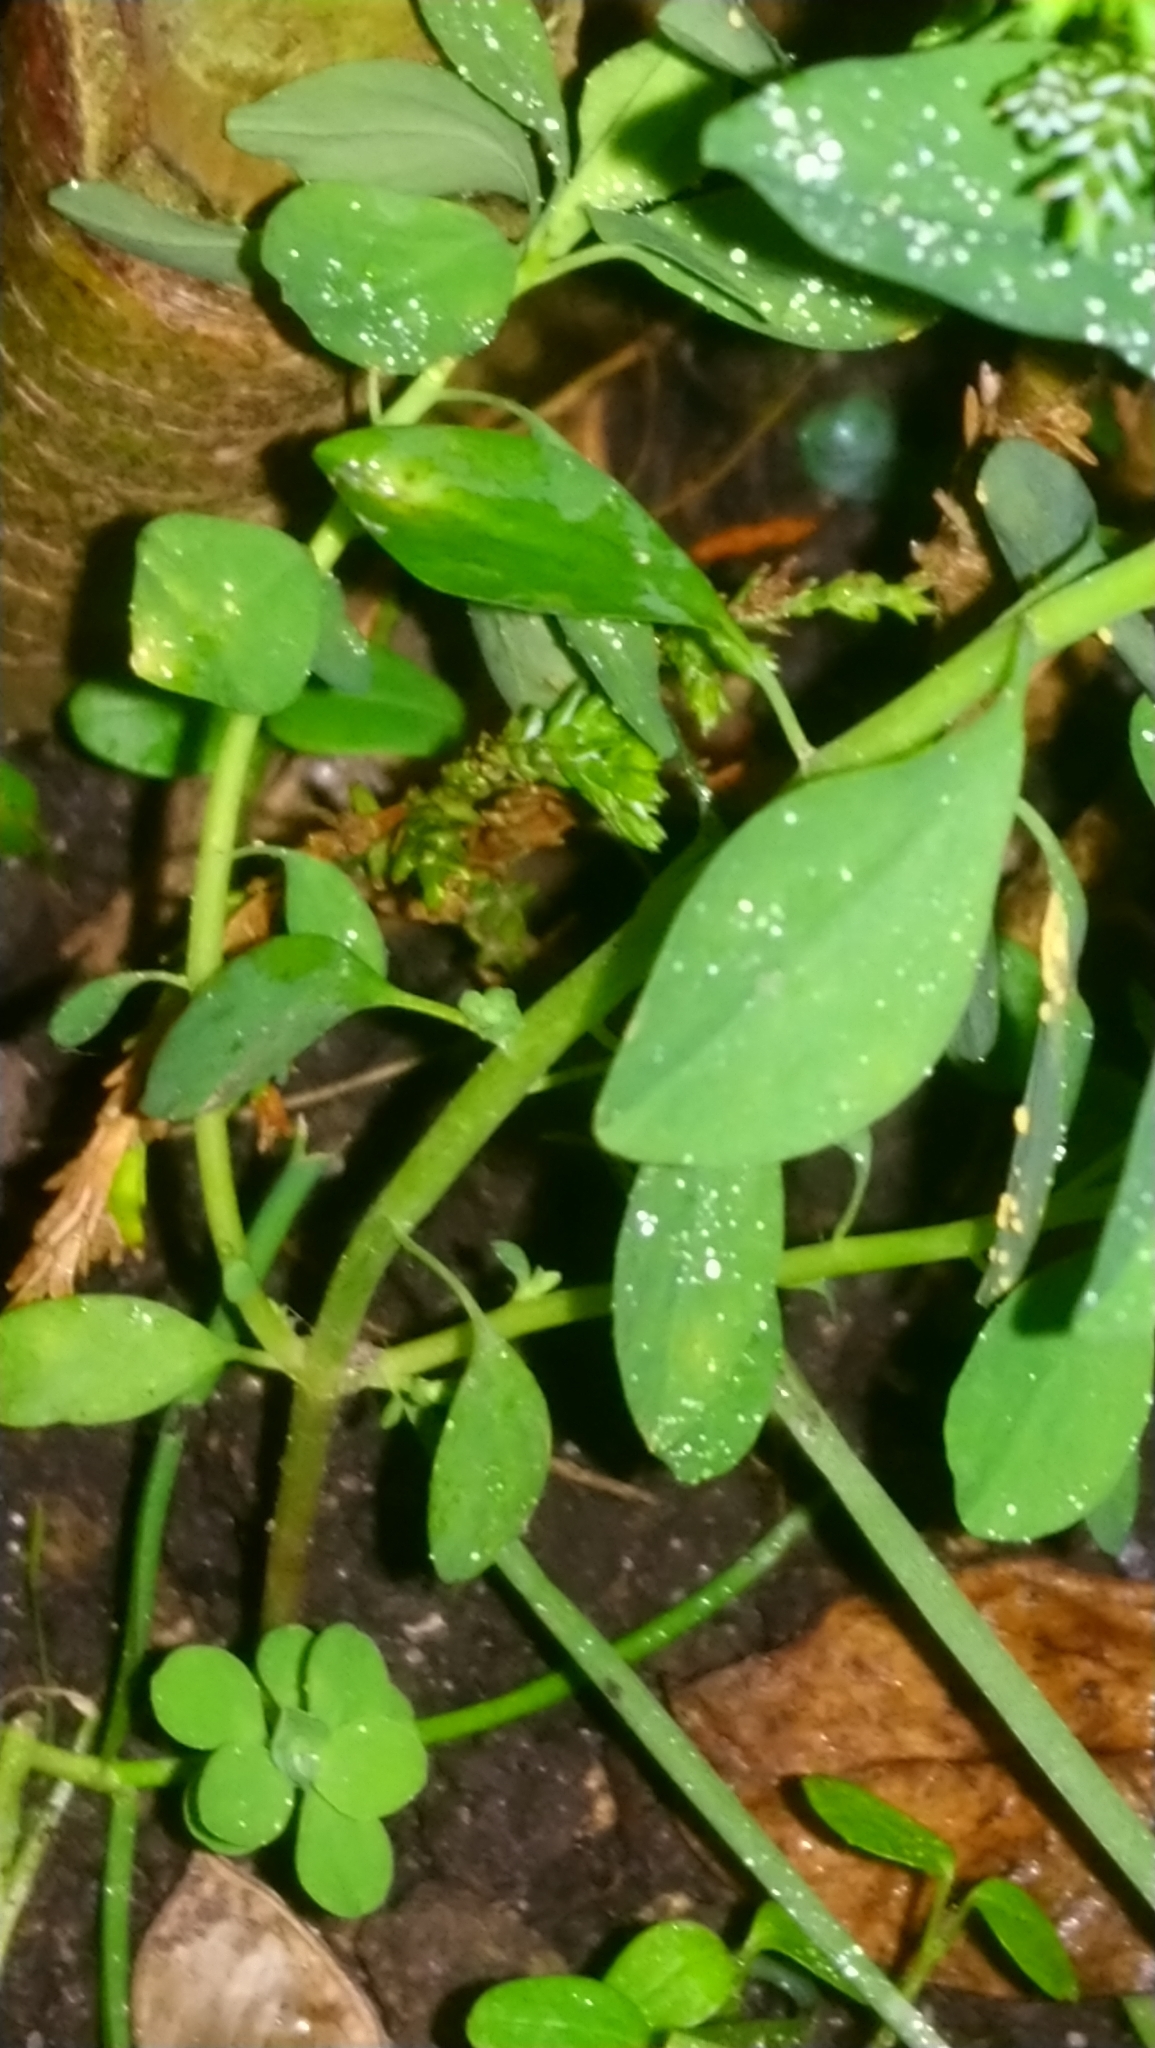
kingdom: Plantae
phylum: Tracheophyta
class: Magnoliopsida
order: Malpighiales
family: Euphorbiaceae
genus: Euphorbia
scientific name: Euphorbia peplus
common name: Petty spurge
